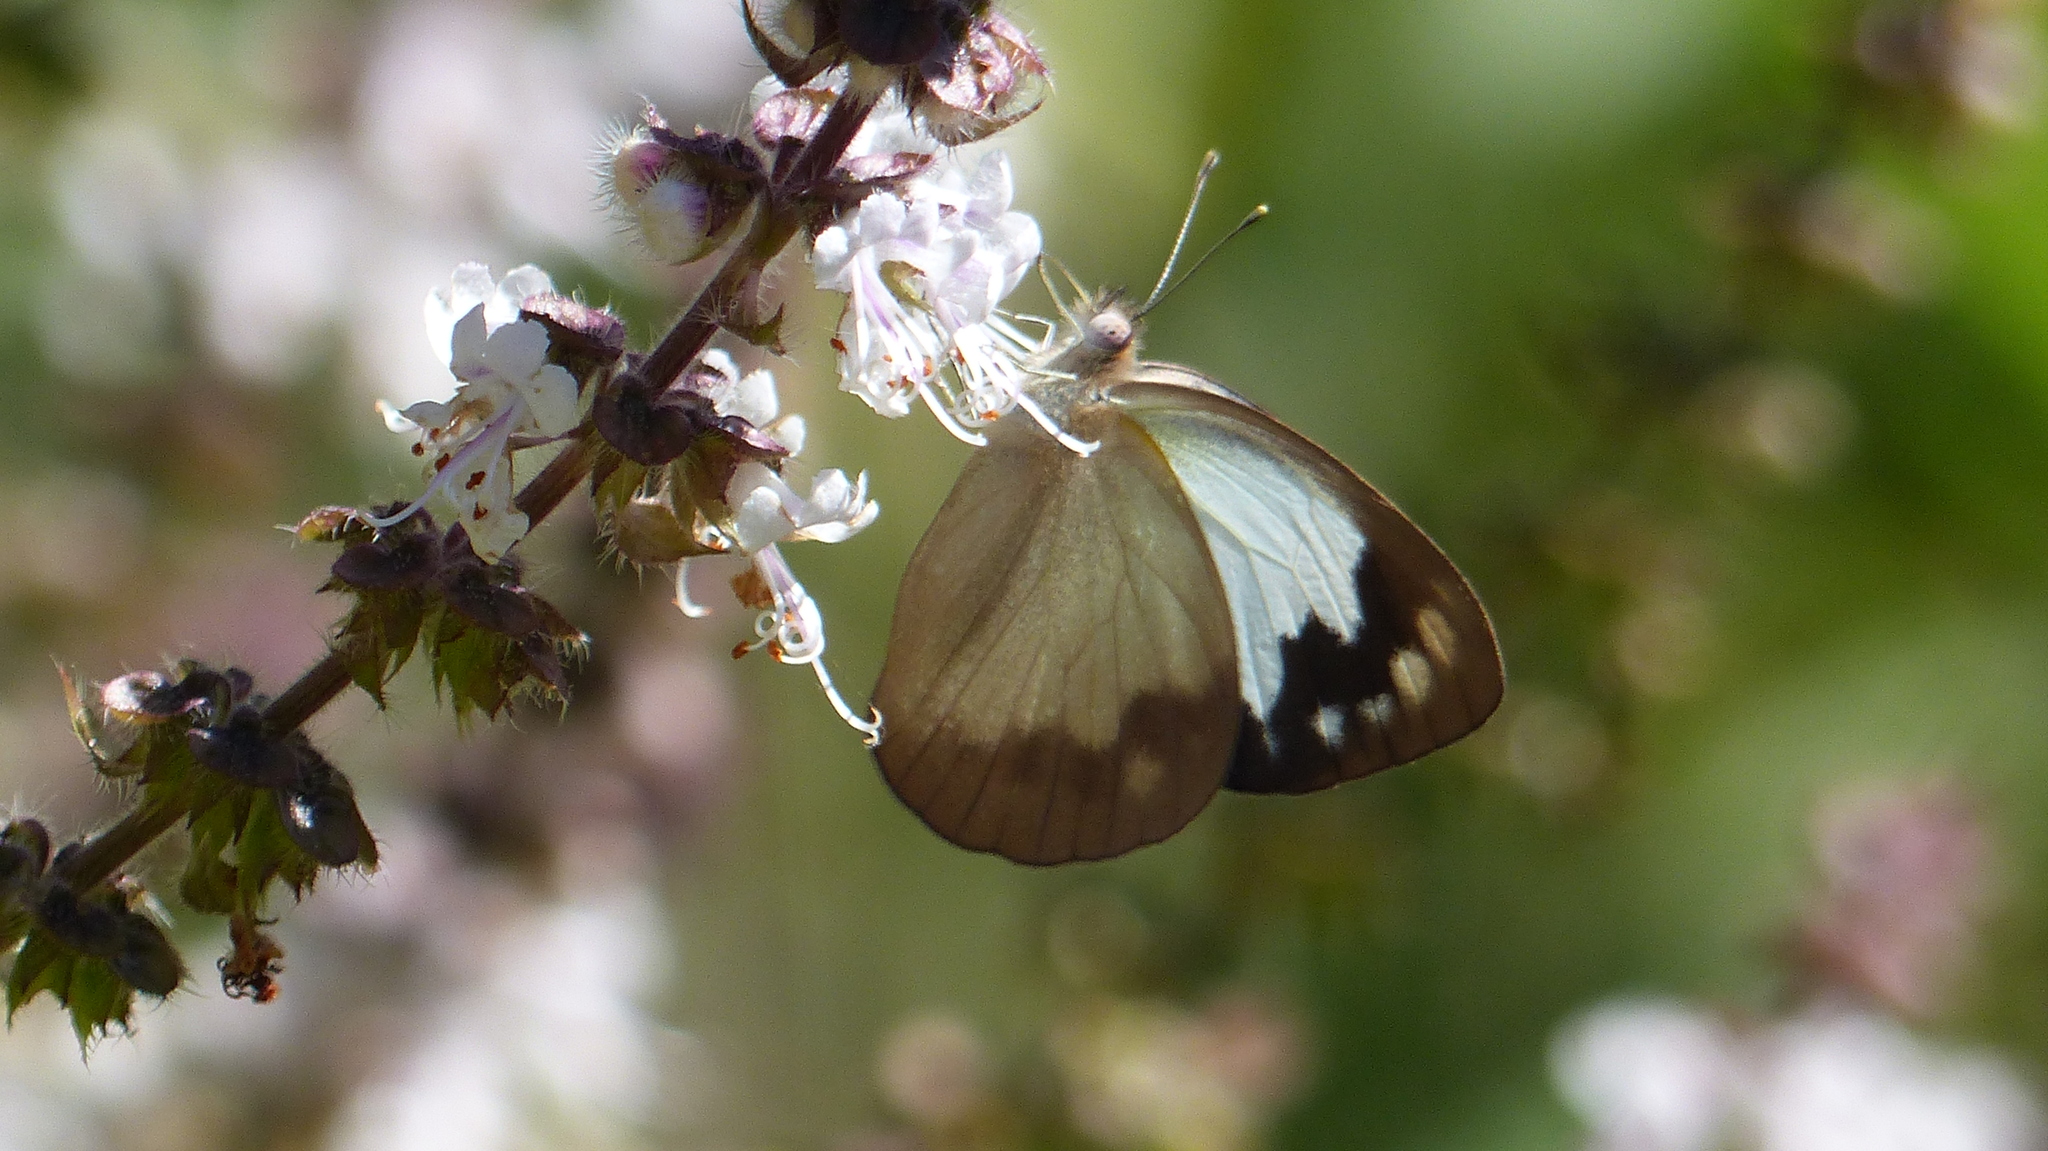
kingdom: Animalia
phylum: Arthropoda
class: Insecta
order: Lepidoptera
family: Pieridae
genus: Cepora
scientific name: Cepora perimale
